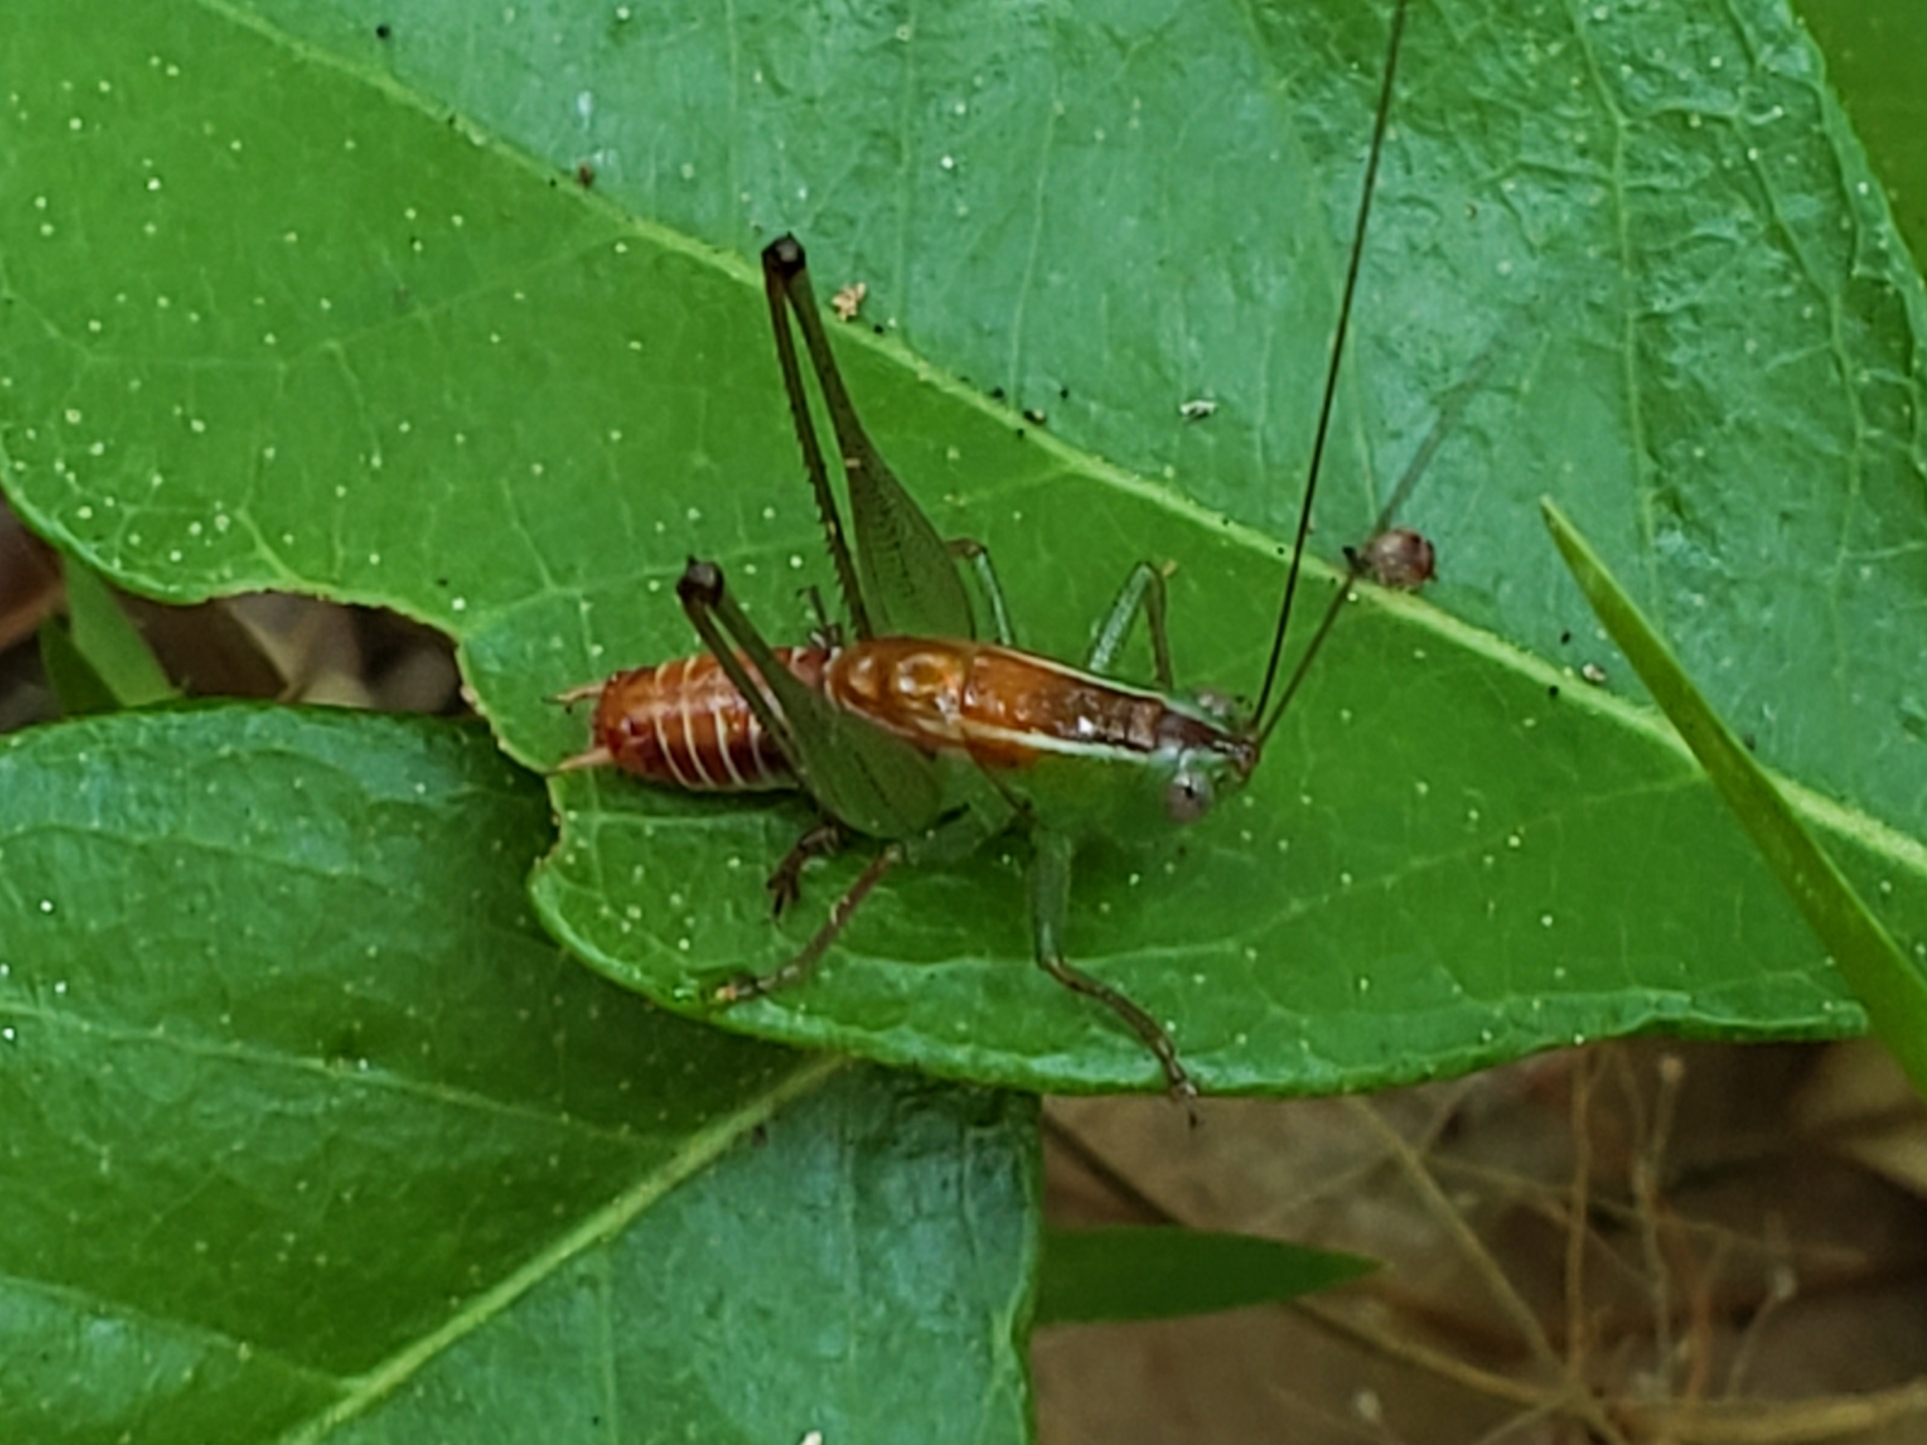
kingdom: Animalia
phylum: Arthropoda
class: Insecta
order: Orthoptera
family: Tettigoniidae
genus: Odontoxiphidium
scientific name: Odontoxiphidium apterum
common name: Wingless meadow katydid
